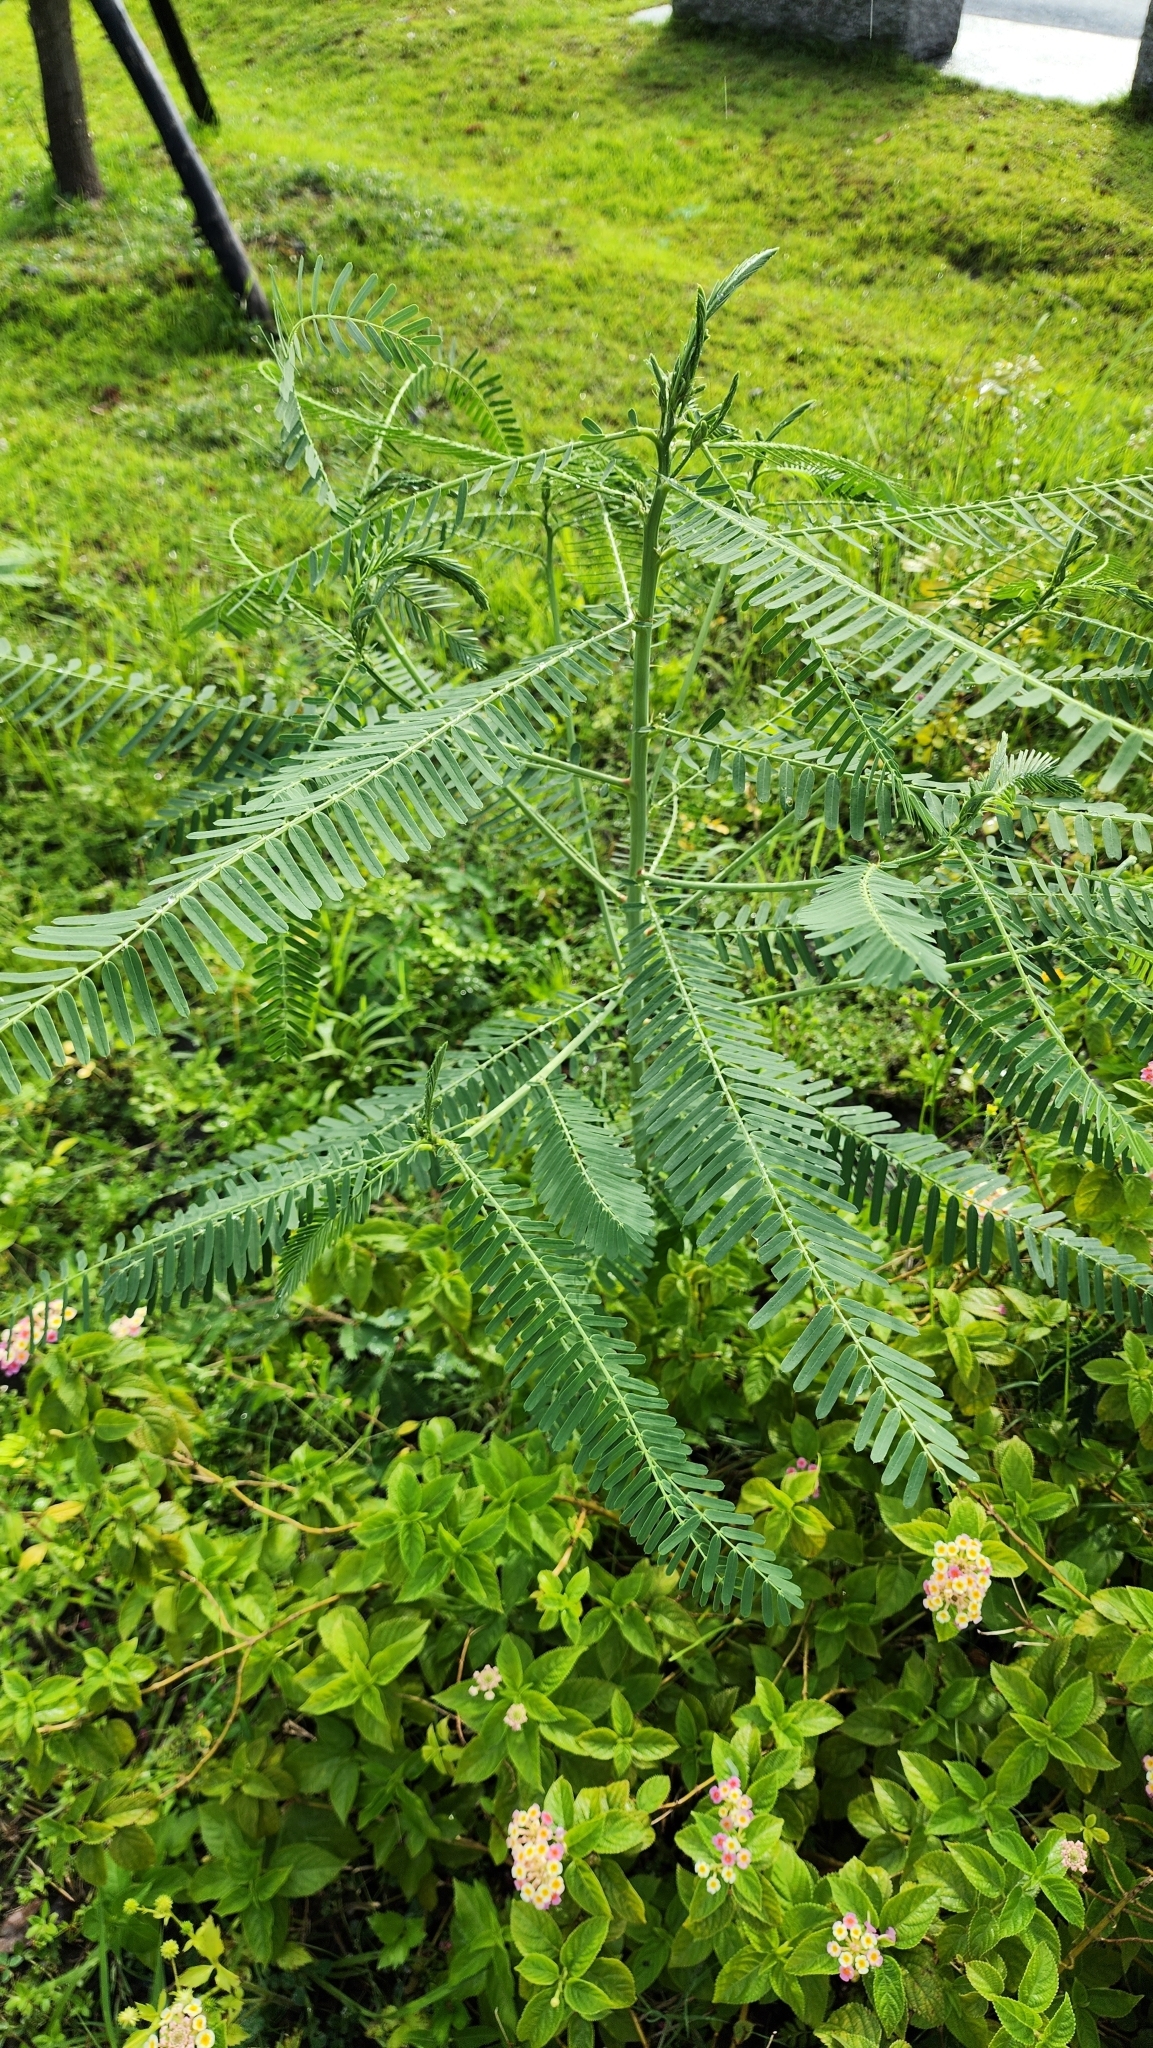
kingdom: Plantae
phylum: Tracheophyta
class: Magnoliopsida
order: Fabales
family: Fabaceae
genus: Sesbania
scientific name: Sesbania cannabina
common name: Canicha
